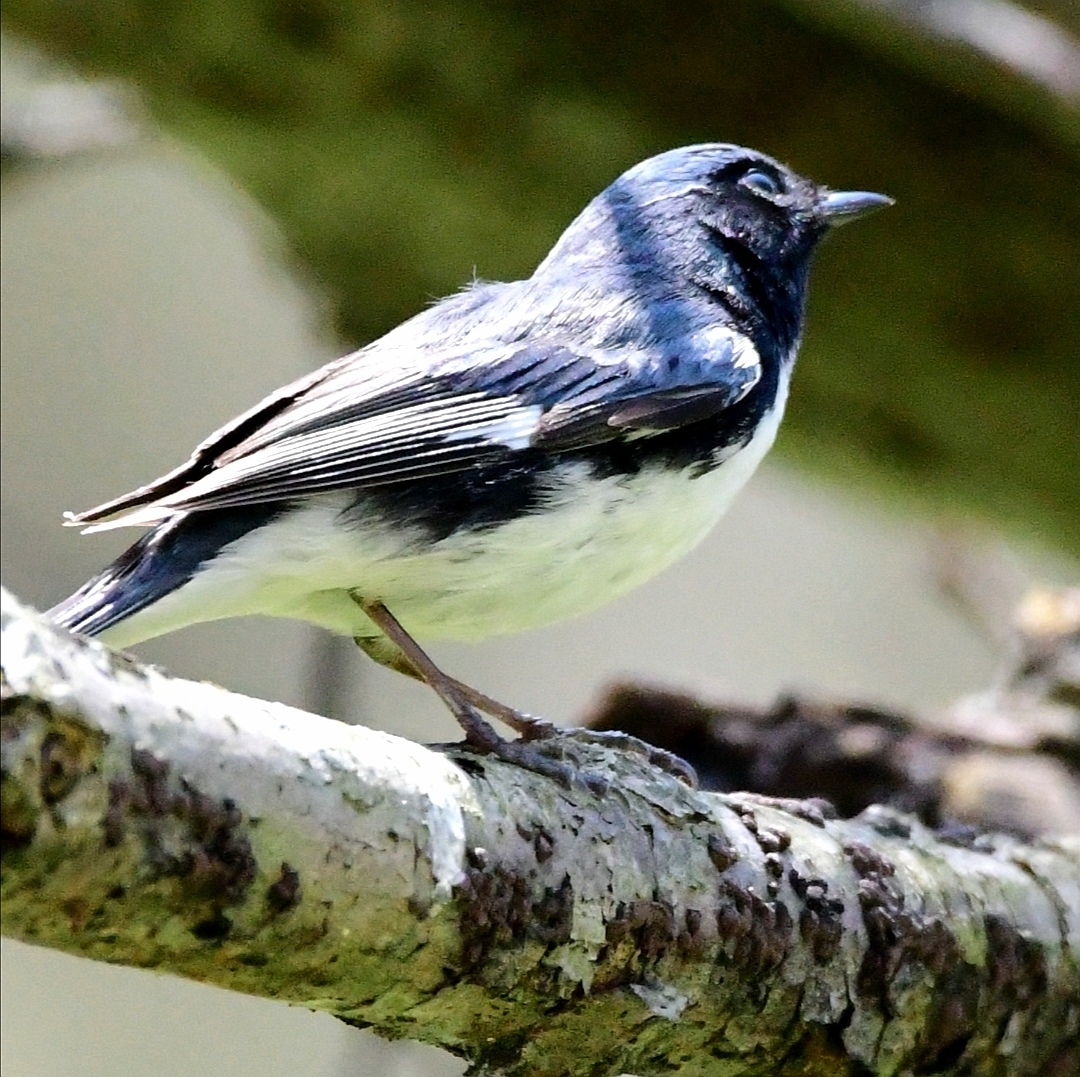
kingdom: Animalia
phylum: Chordata
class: Aves
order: Passeriformes
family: Parulidae
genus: Setophaga
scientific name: Setophaga caerulescens
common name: Black-throated blue warbler
